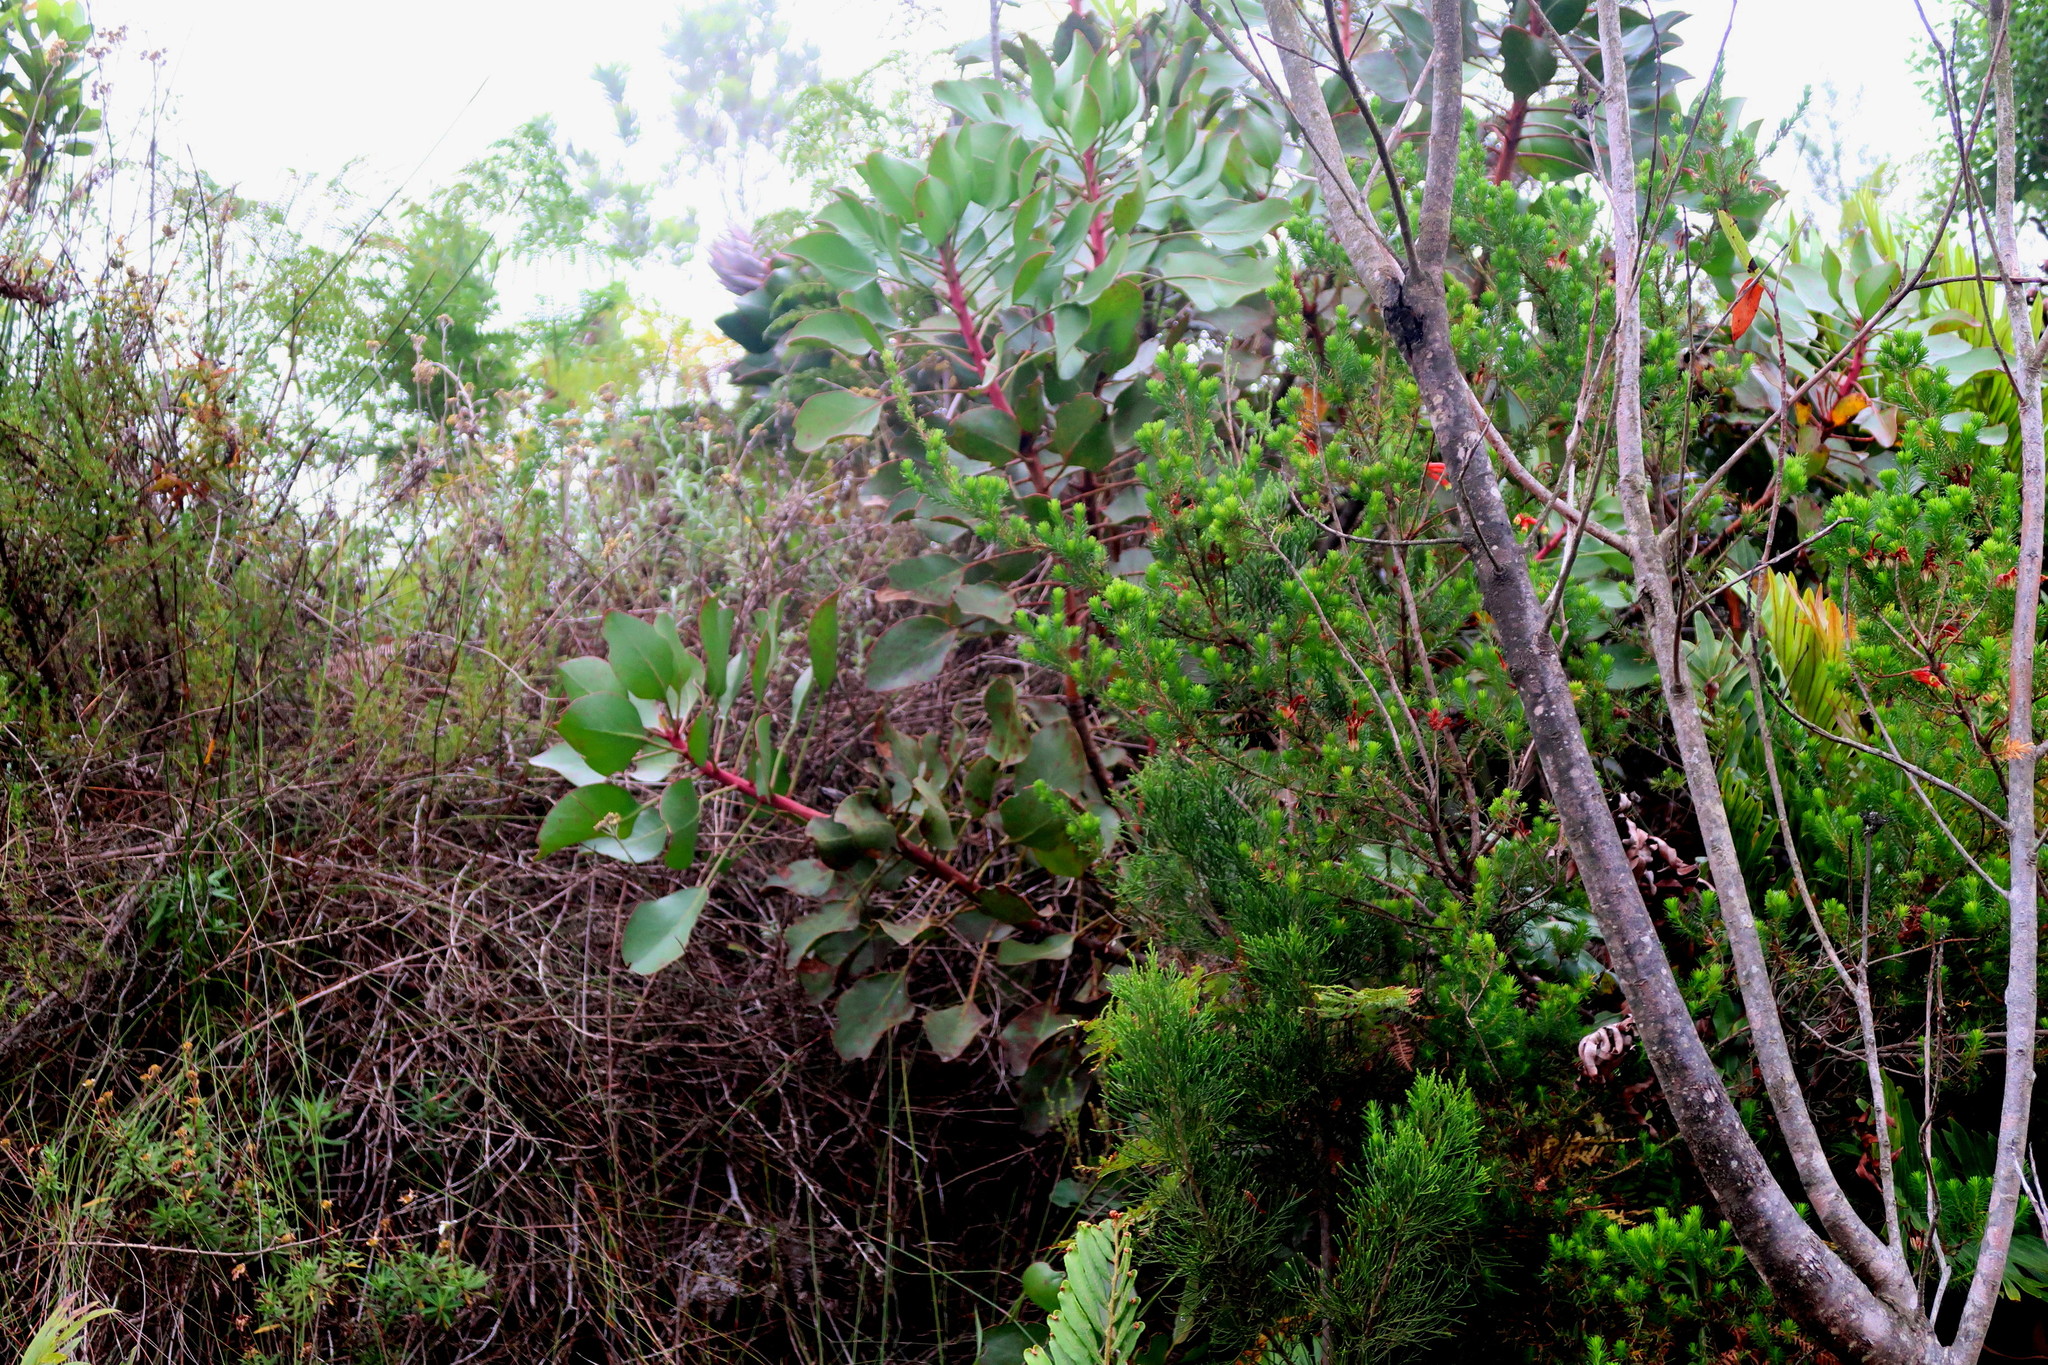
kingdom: Plantae
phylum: Tracheophyta
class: Magnoliopsida
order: Proteales
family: Proteaceae
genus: Protea
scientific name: Protea cynaroides
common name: King protea
